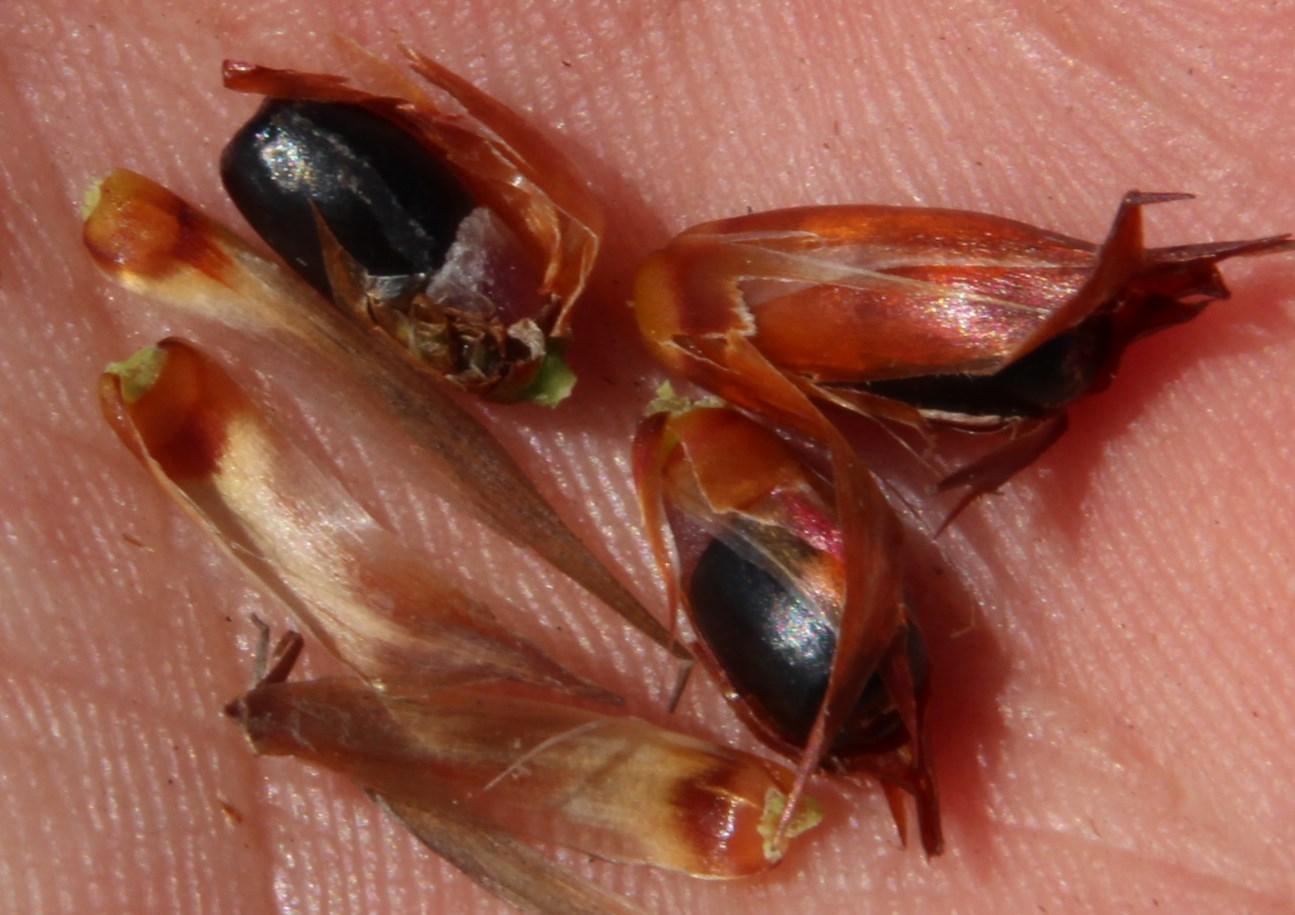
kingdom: Plantae
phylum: Tracheophyta
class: Liliopsida
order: Poales
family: Restionaceae
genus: Hypodiscus
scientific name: Hypodiscus argenteus
